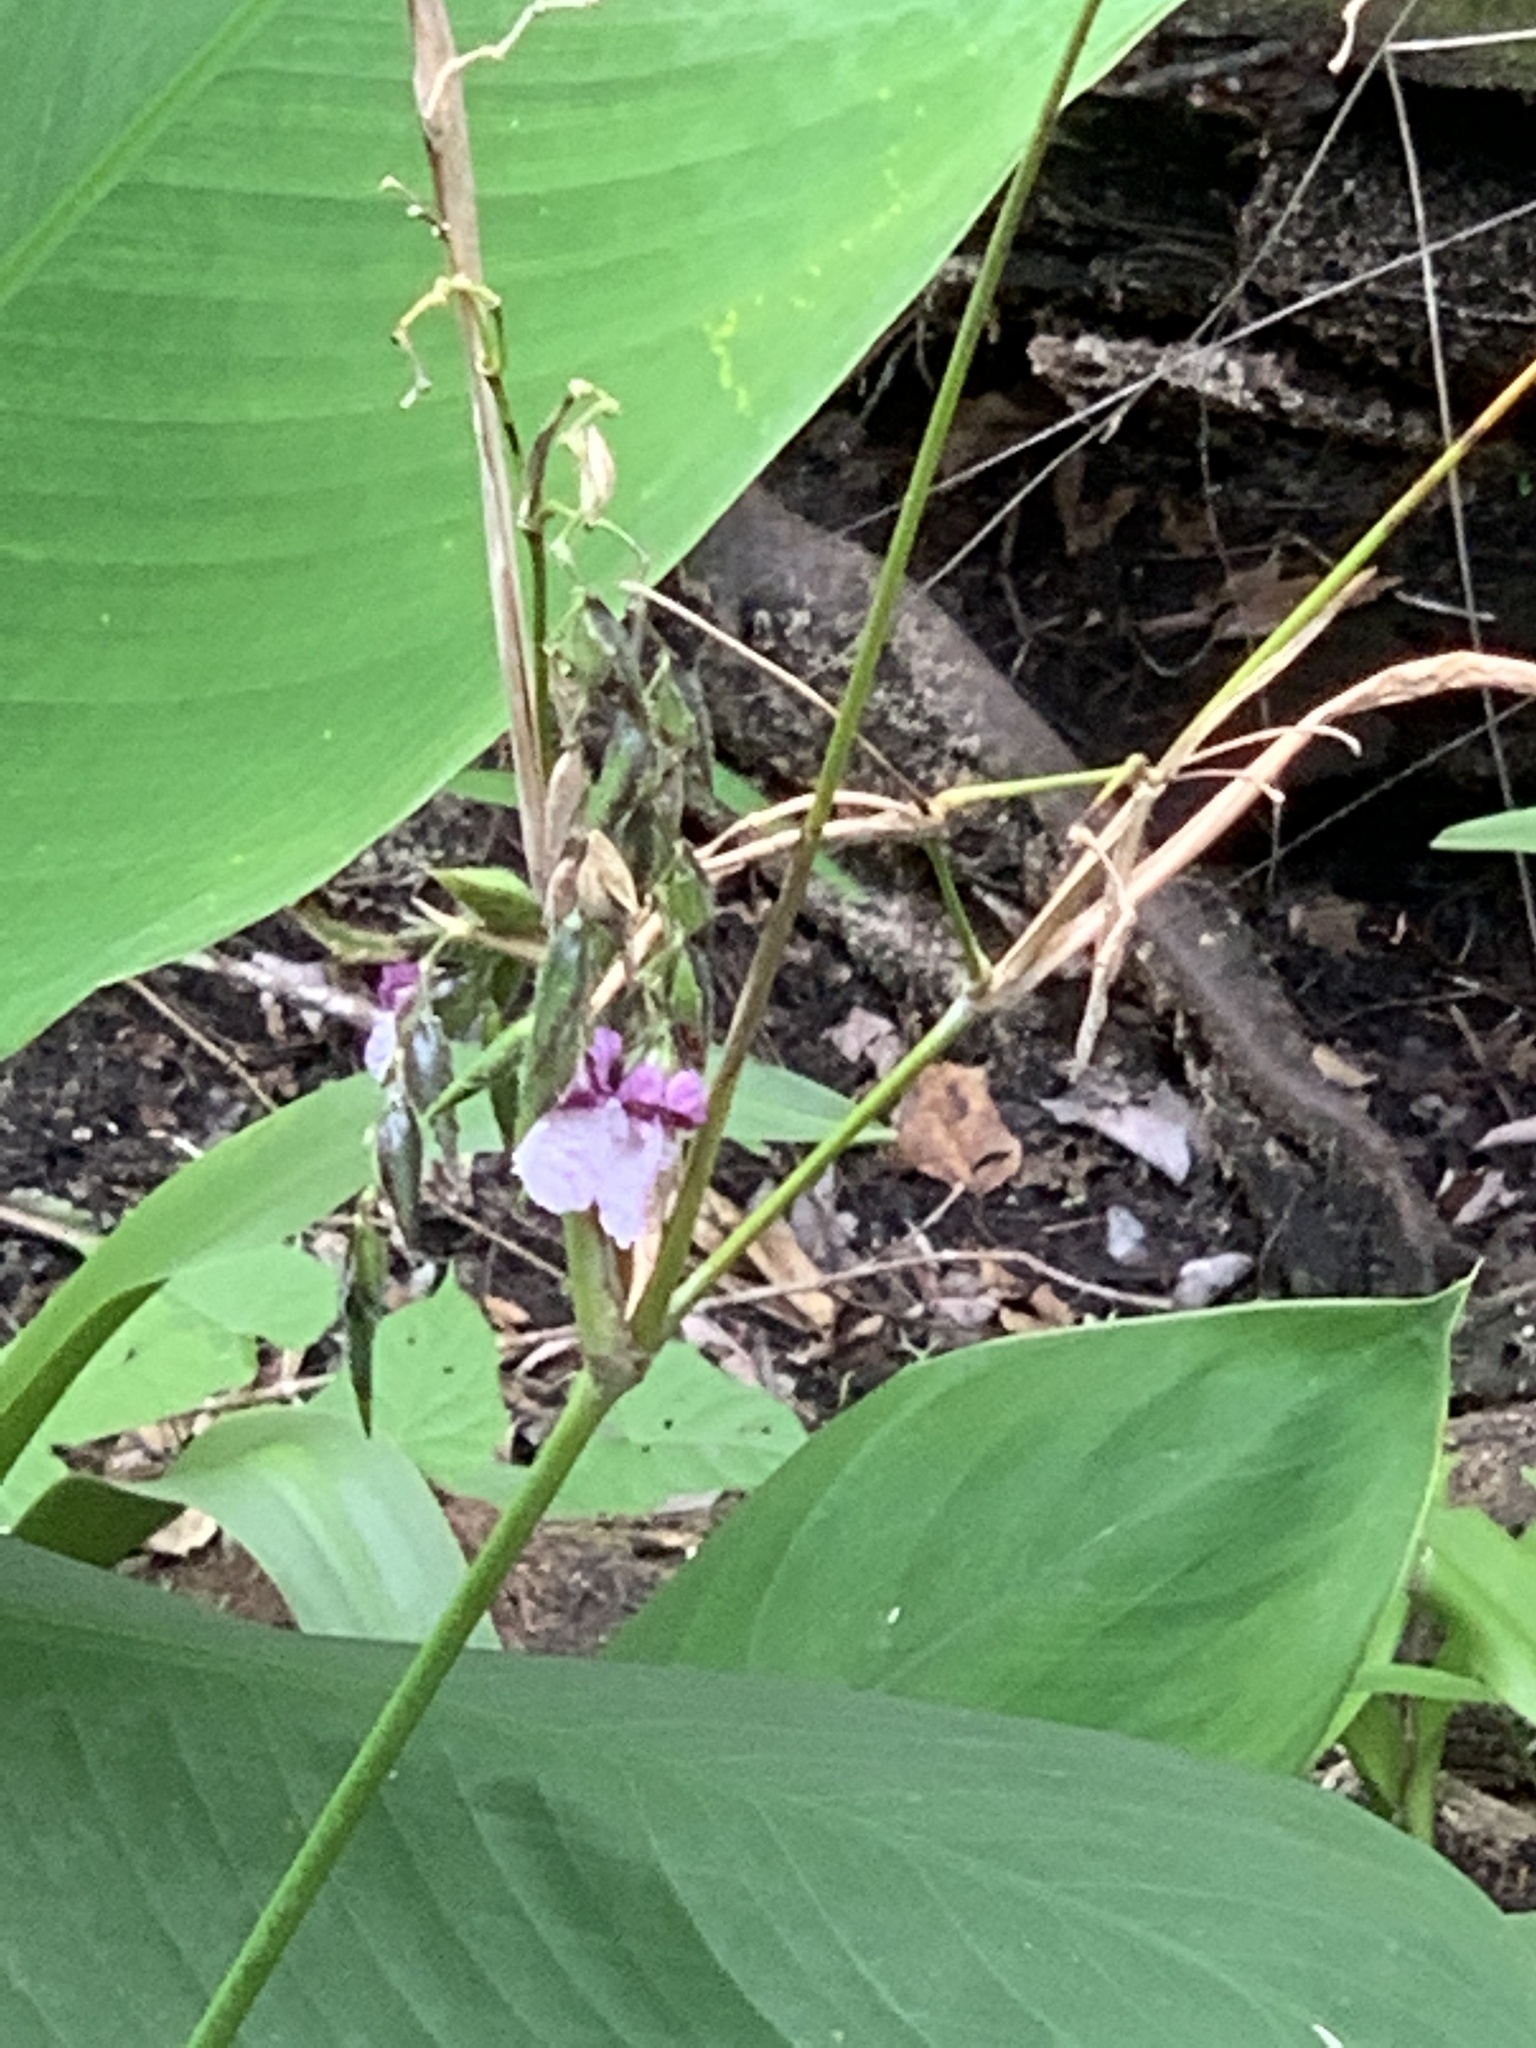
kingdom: Plantae
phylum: Tracheophyta
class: Liliopsida
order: Zingiberales
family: Marantaceae
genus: Thalia
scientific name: Thalia geniculata
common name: Arrowroot
